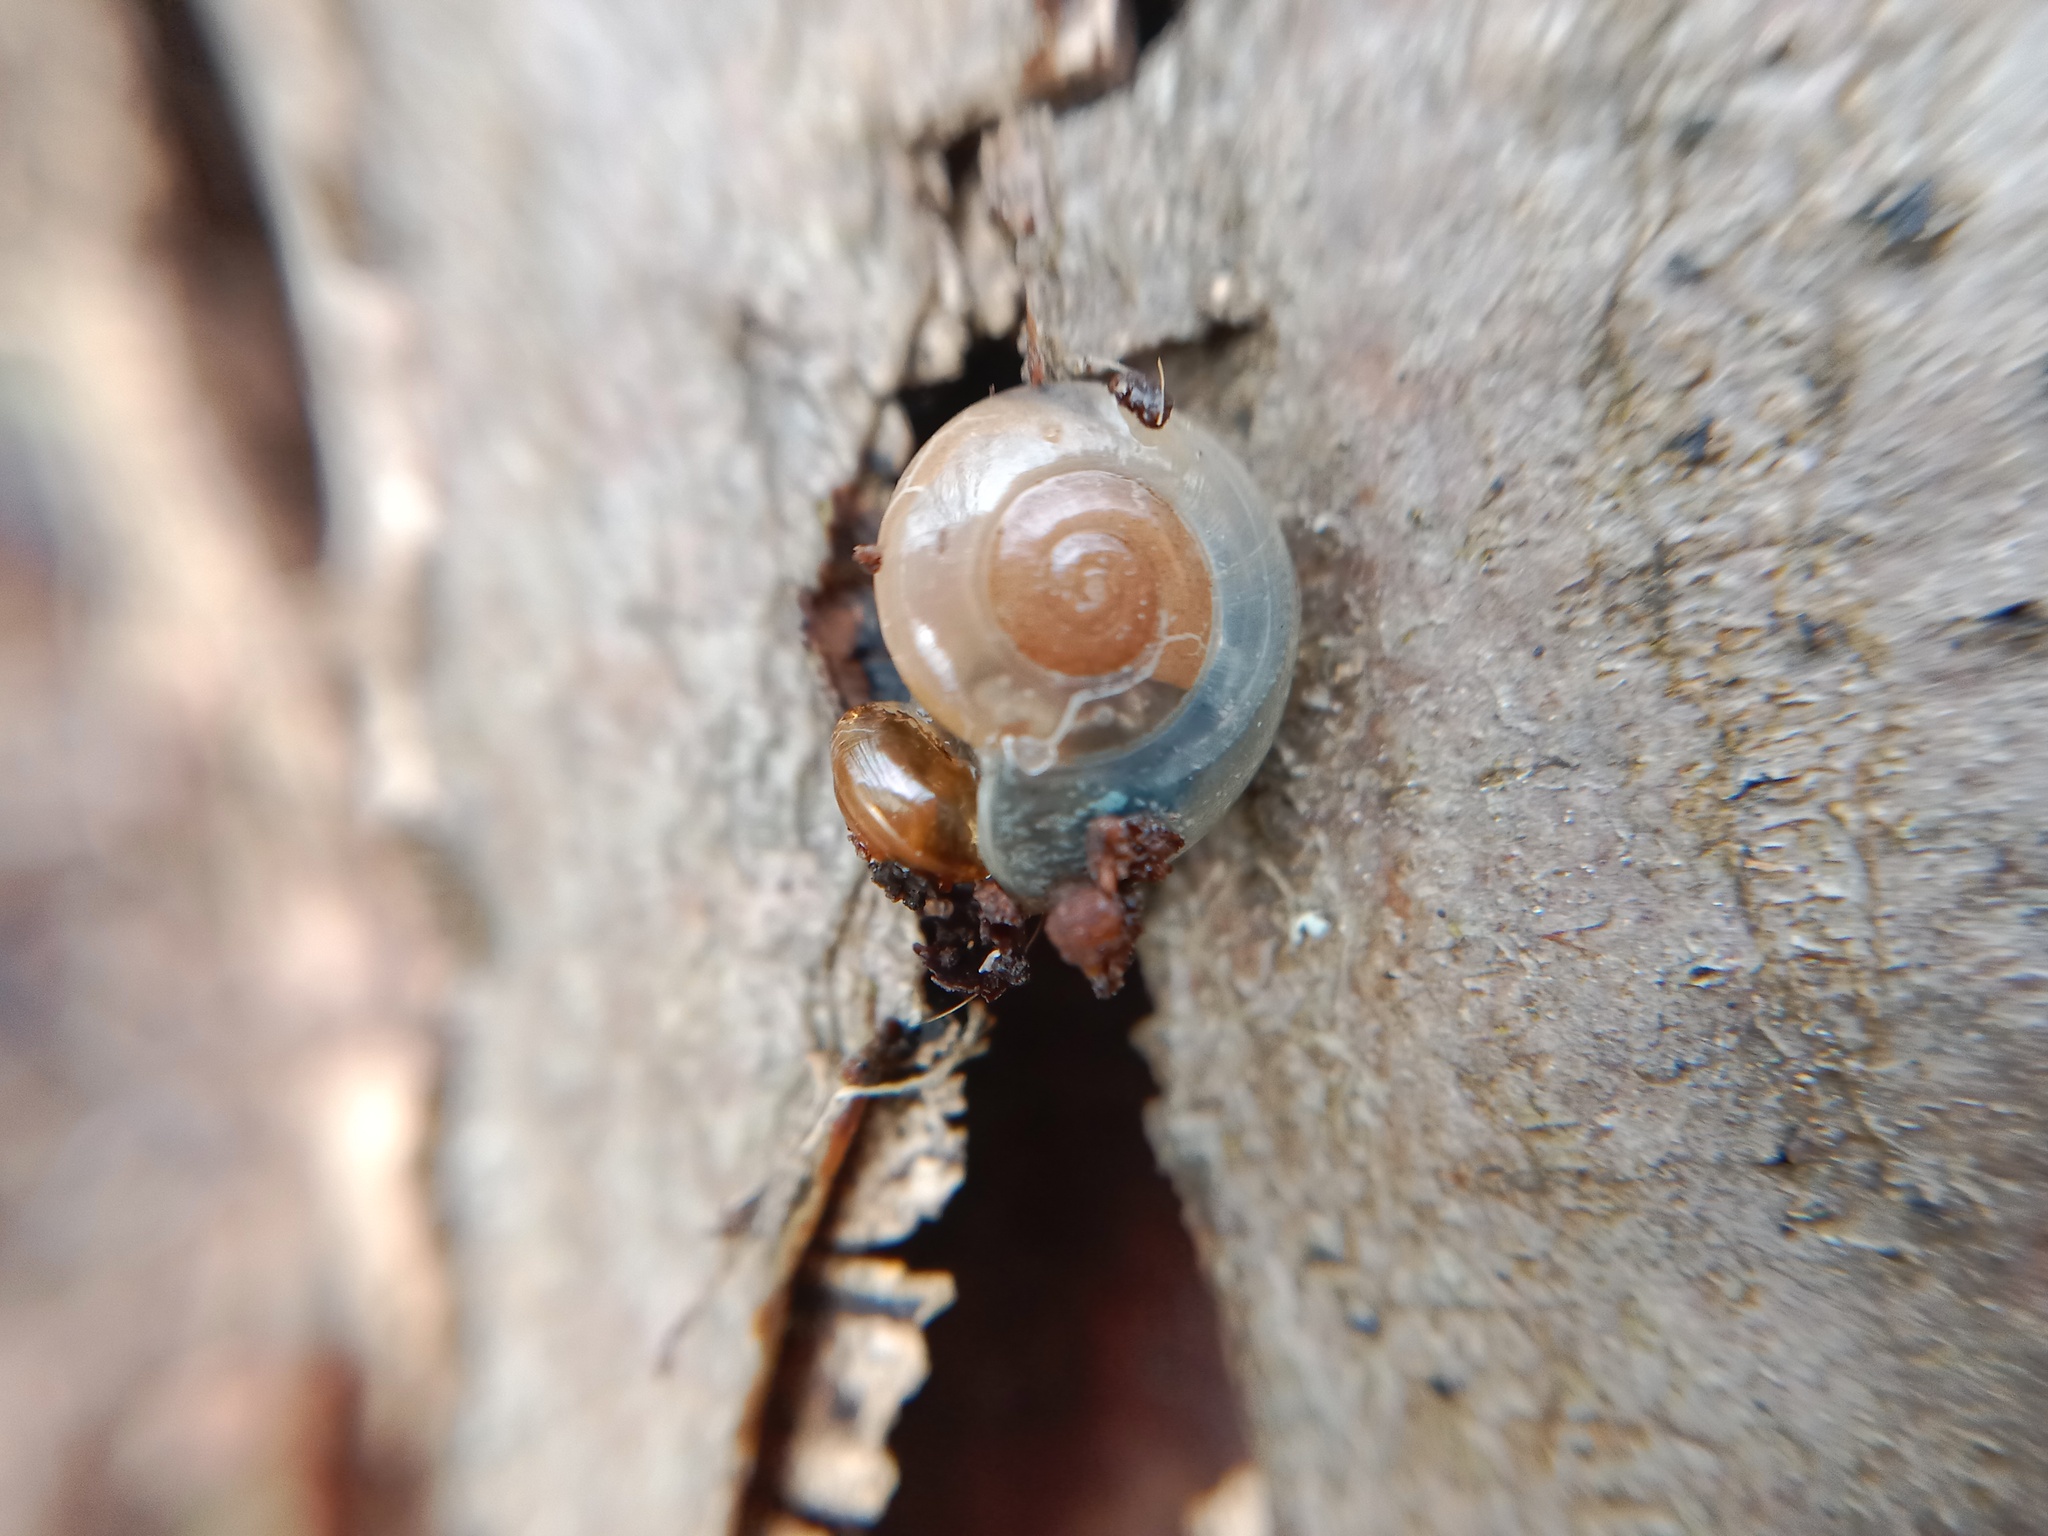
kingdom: Animalia
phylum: Mollusca
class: Gastropoda
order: Stylommatophora
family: Gastrodontidae
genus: Aegopinella
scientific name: Aegopinella minor
